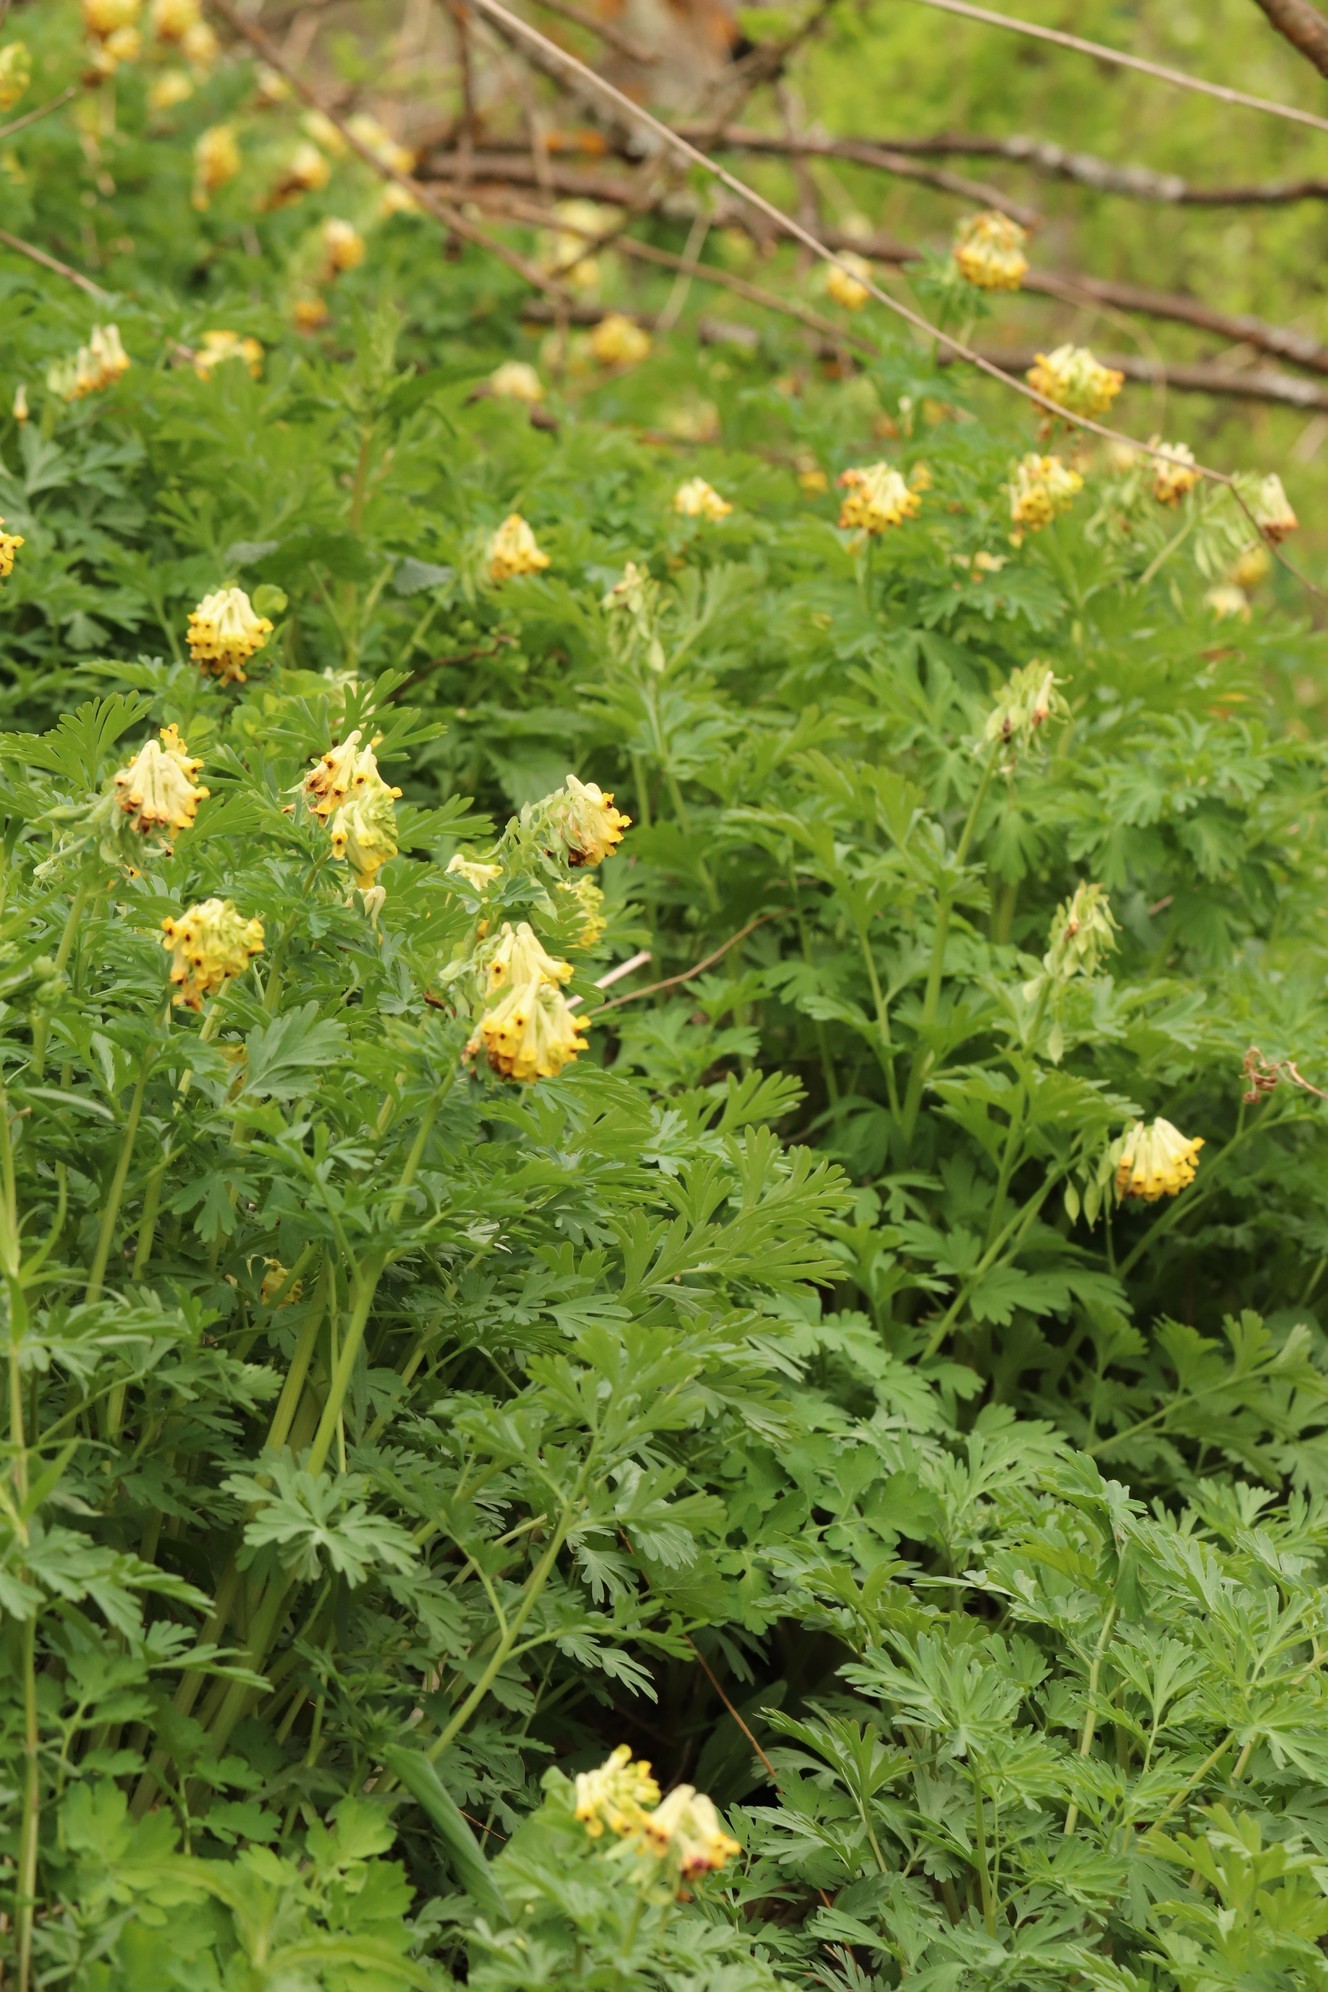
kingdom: Plantae
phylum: Tracheophyta
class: Magnoliopsida
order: Ranunculales
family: Papaveraceae
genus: Corydalis
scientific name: Corydalis nobilis
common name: Siberian corydalis
